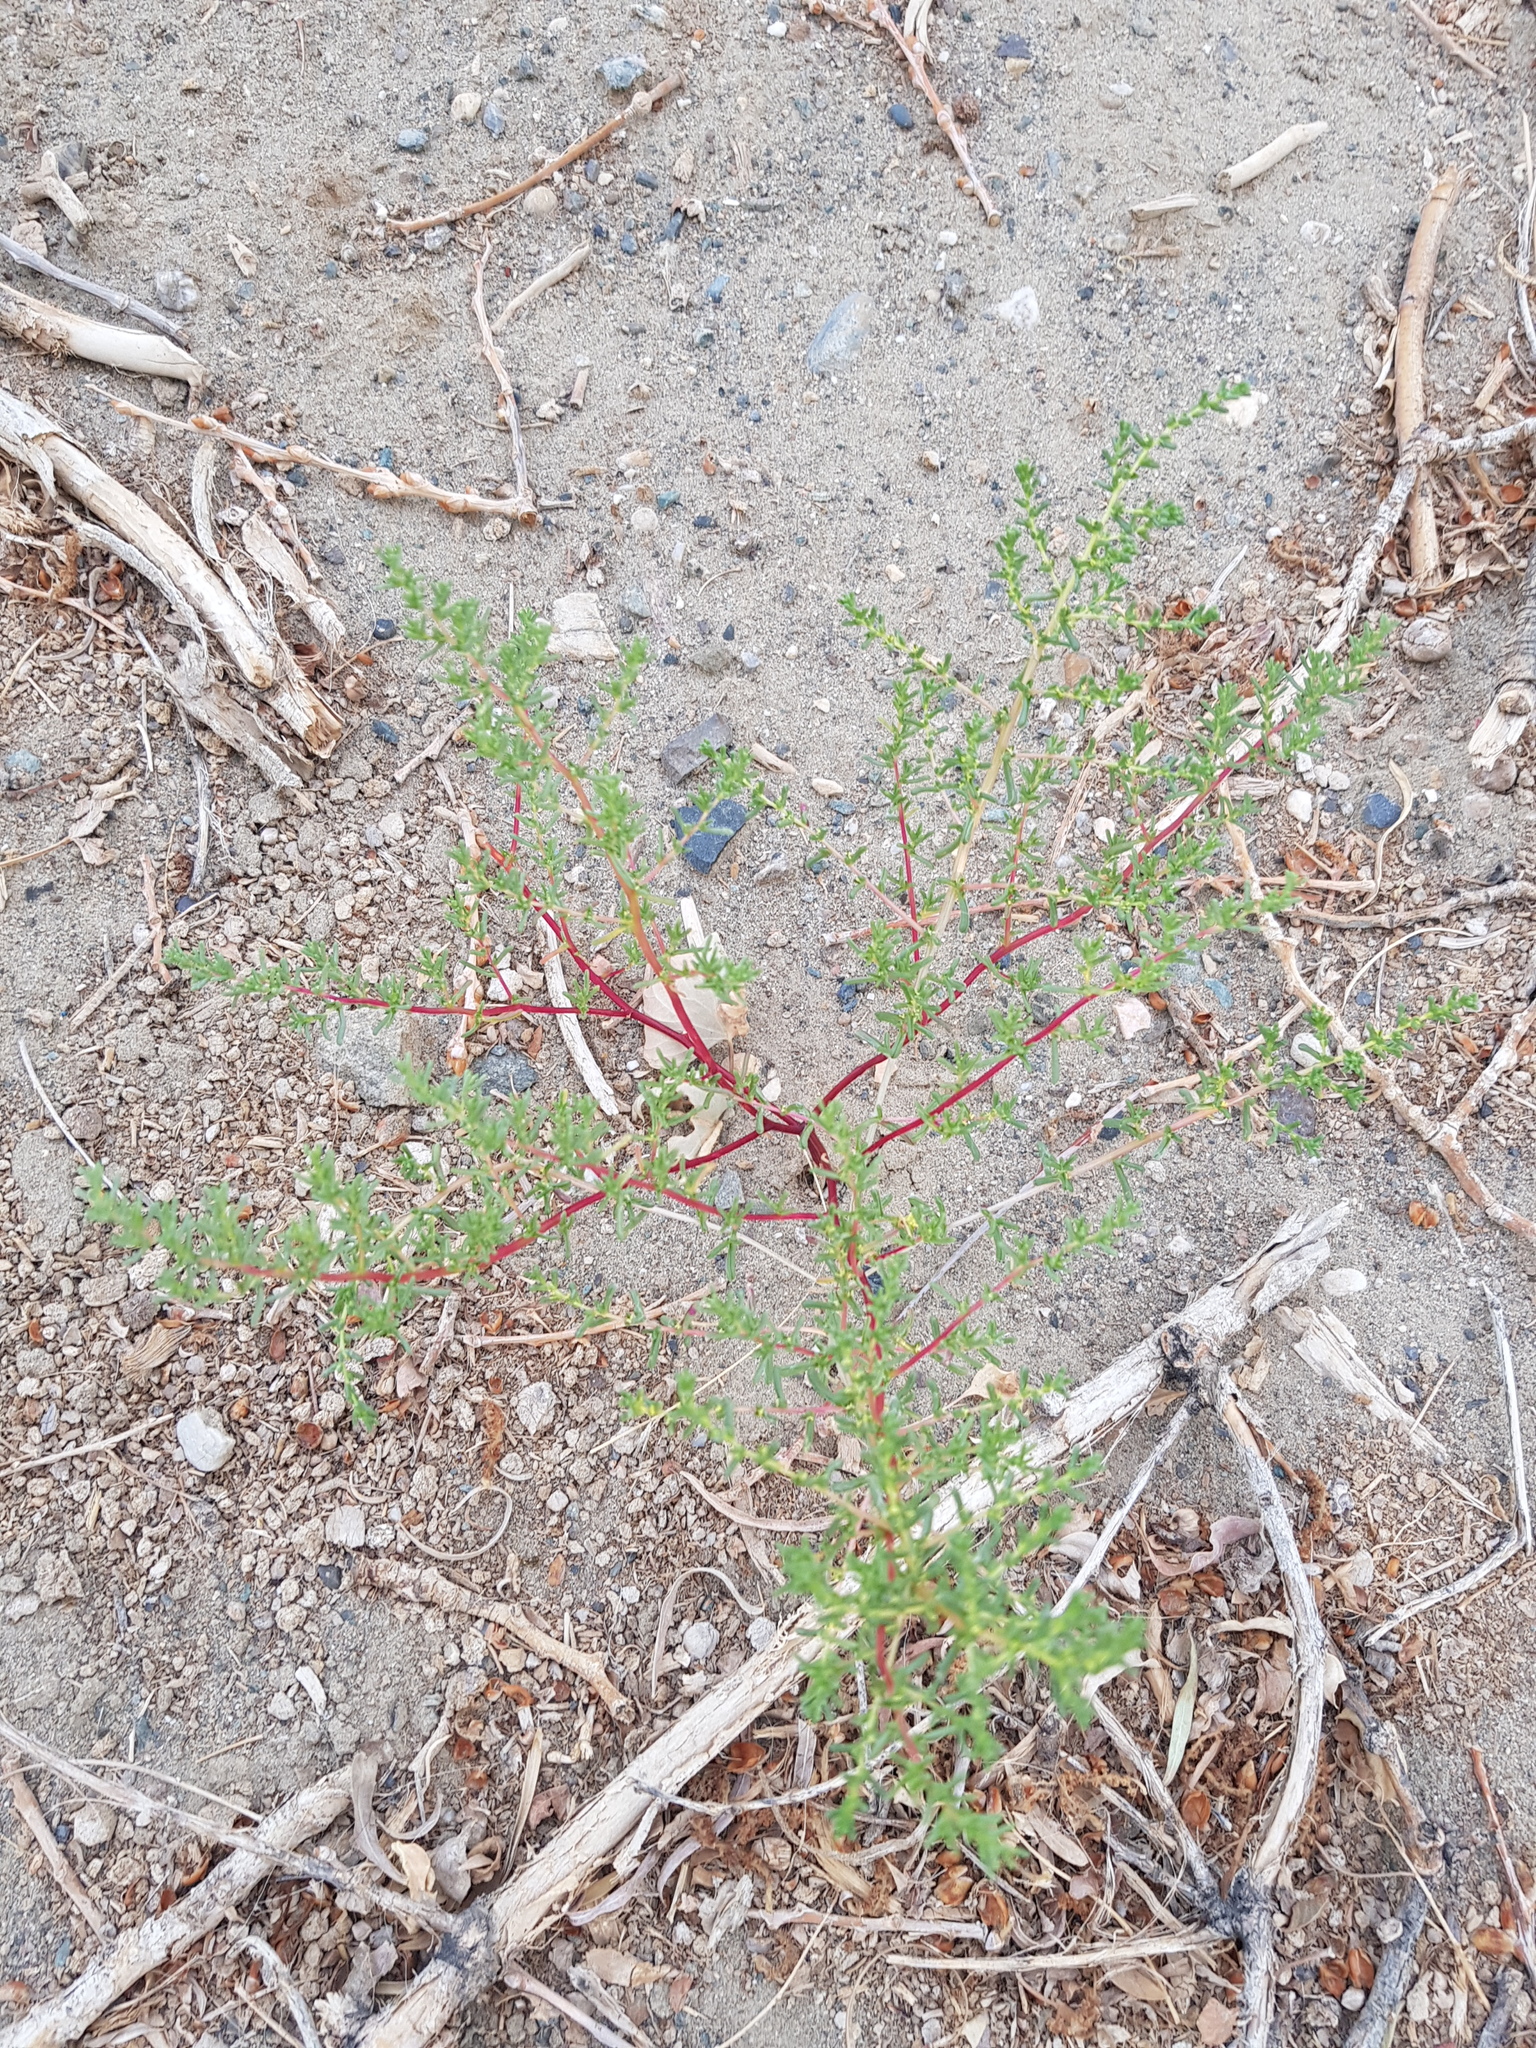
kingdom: Plantae
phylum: Tracheophyta
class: Magnoliopsida
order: Caryophyllales
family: Amaranthaceae
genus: Halogeton
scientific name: Halogeton arachnoides
